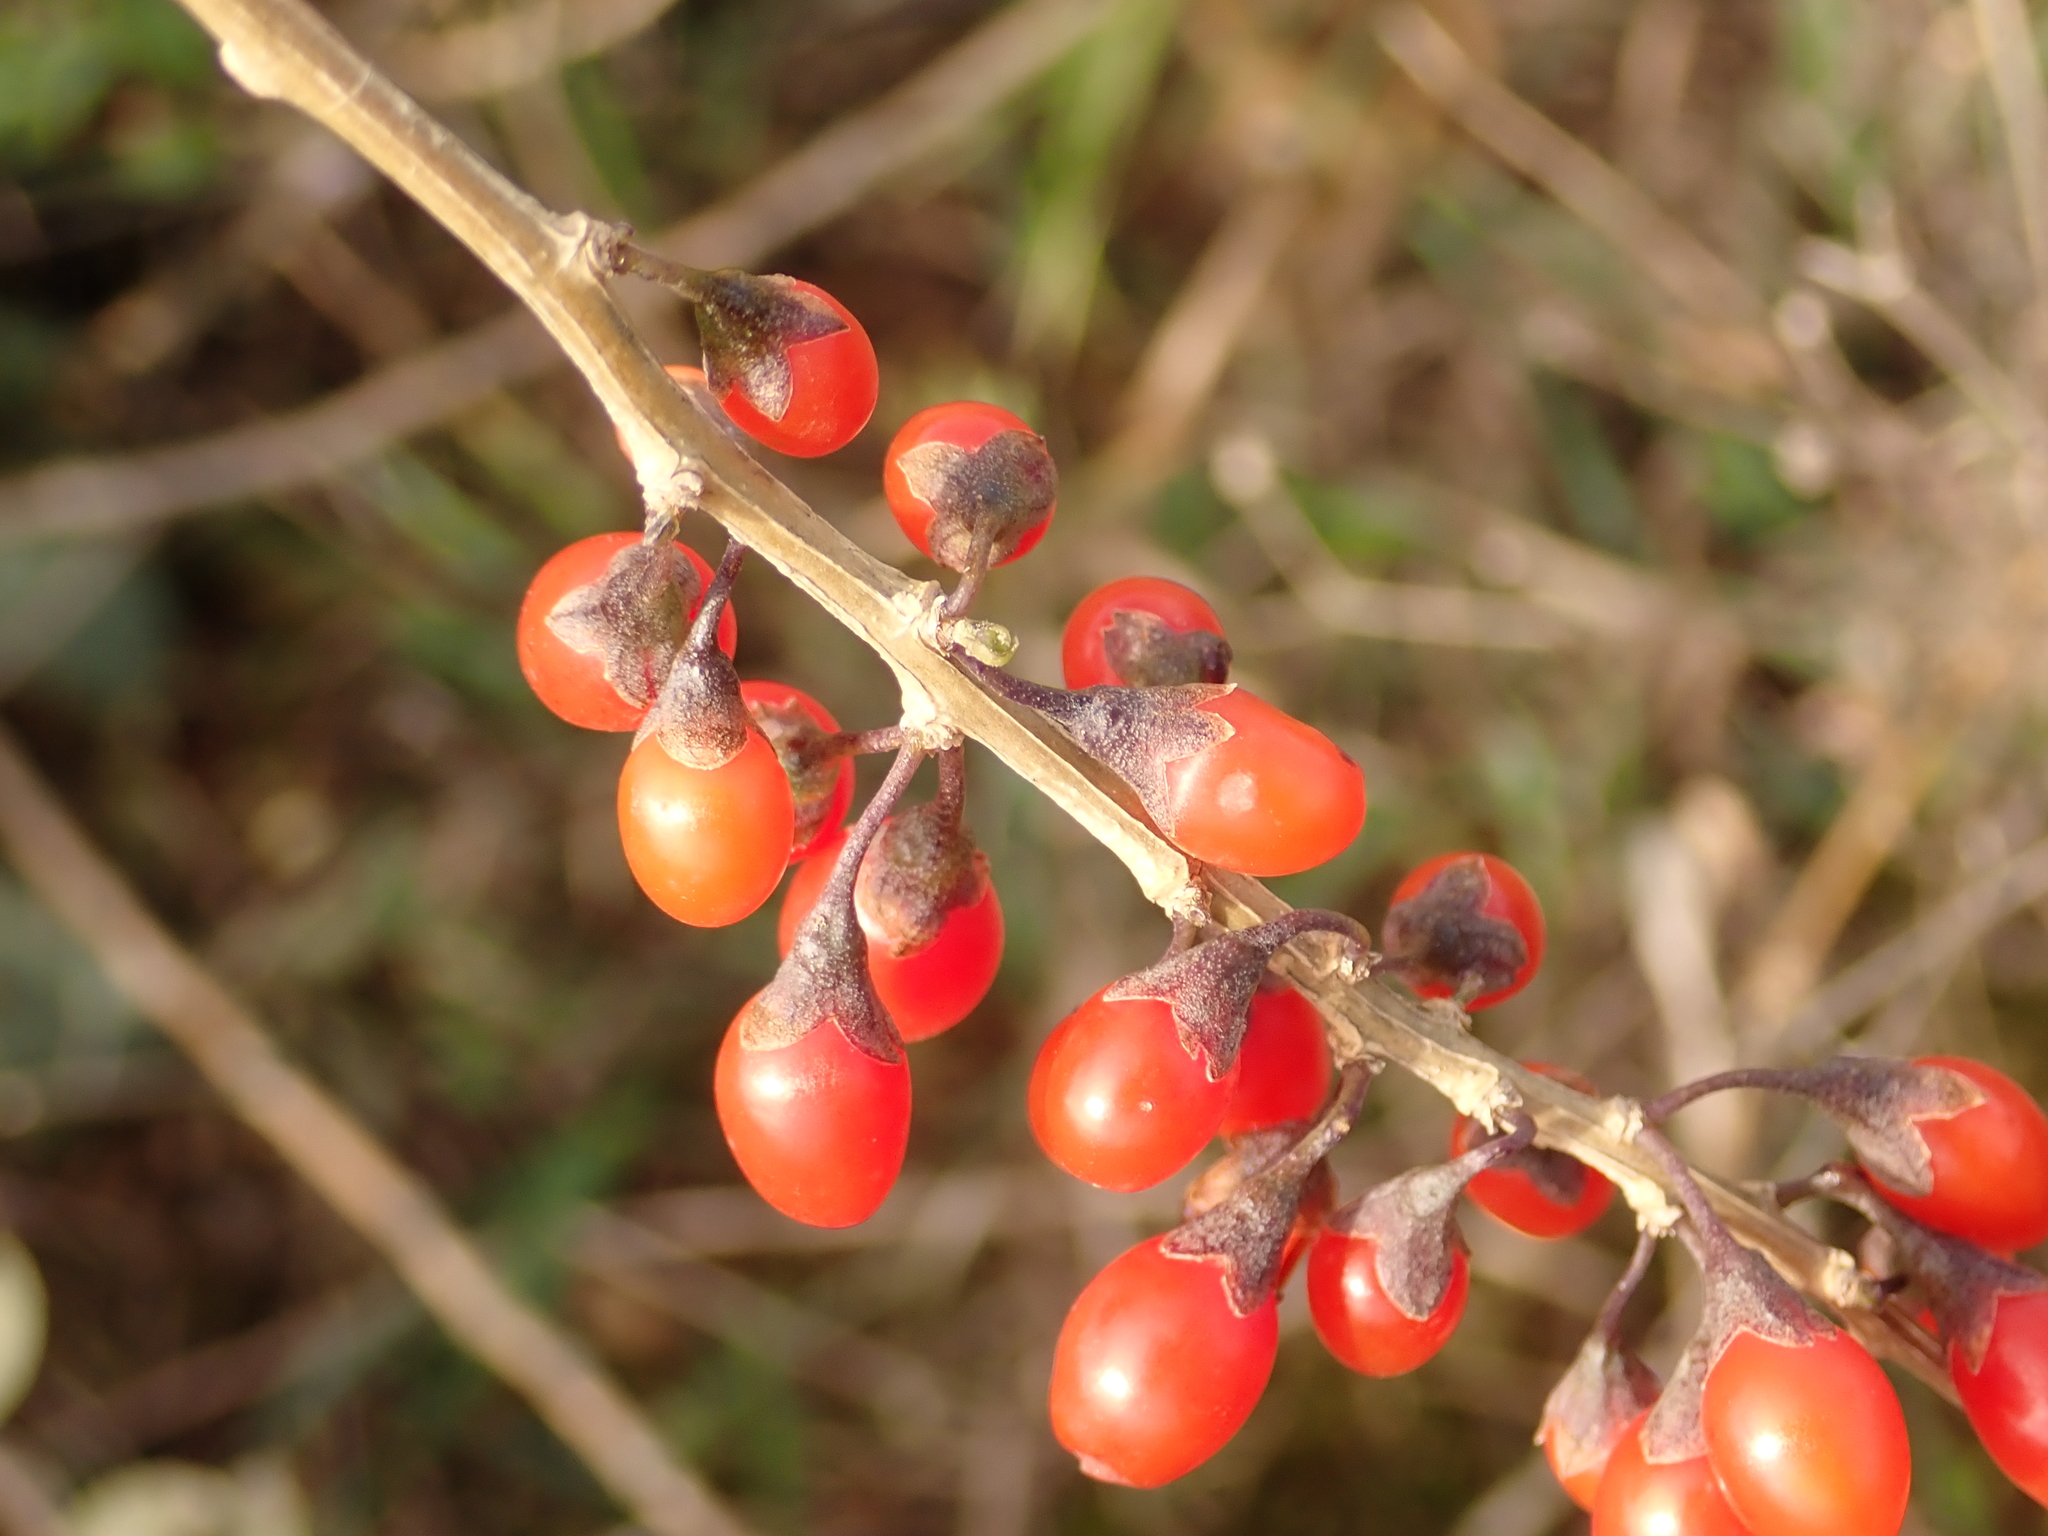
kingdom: Plantae
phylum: Tracheophyta
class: Magnoliopsida
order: Solanales
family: Solanaceae
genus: Lycium
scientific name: Lycium barbarum
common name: Duke of argyll's teaplant
